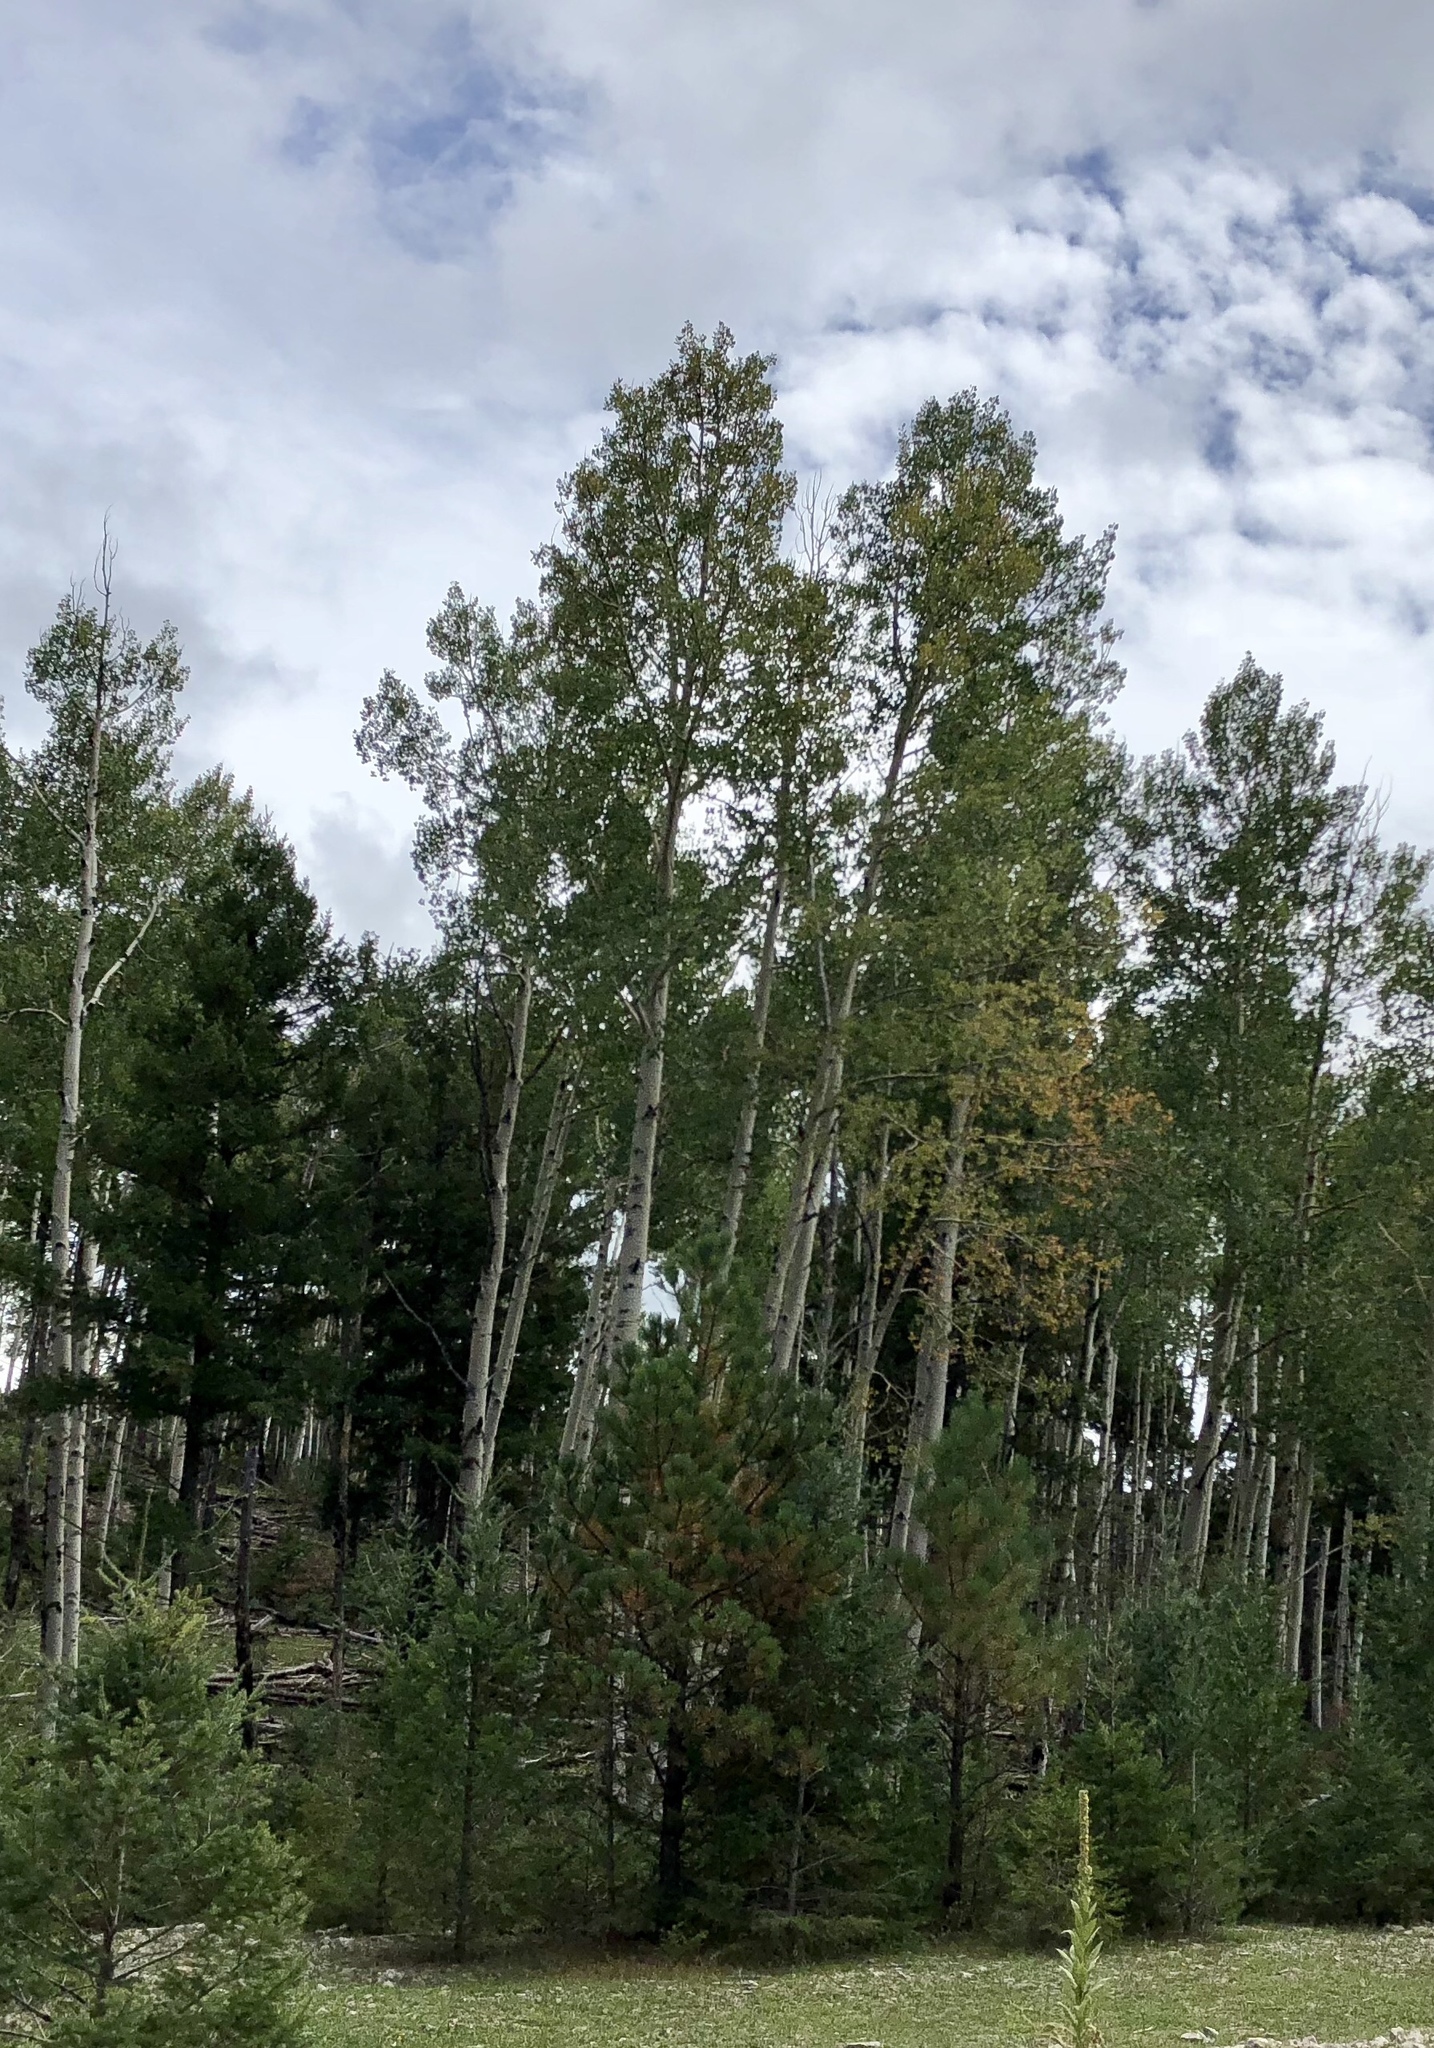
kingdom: Plantae
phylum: Tracheophyta
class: Magnoliopsida
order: Malpighiales
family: Salicaceae
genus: Populus
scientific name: Populus tremuloides
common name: Quaking aspen
